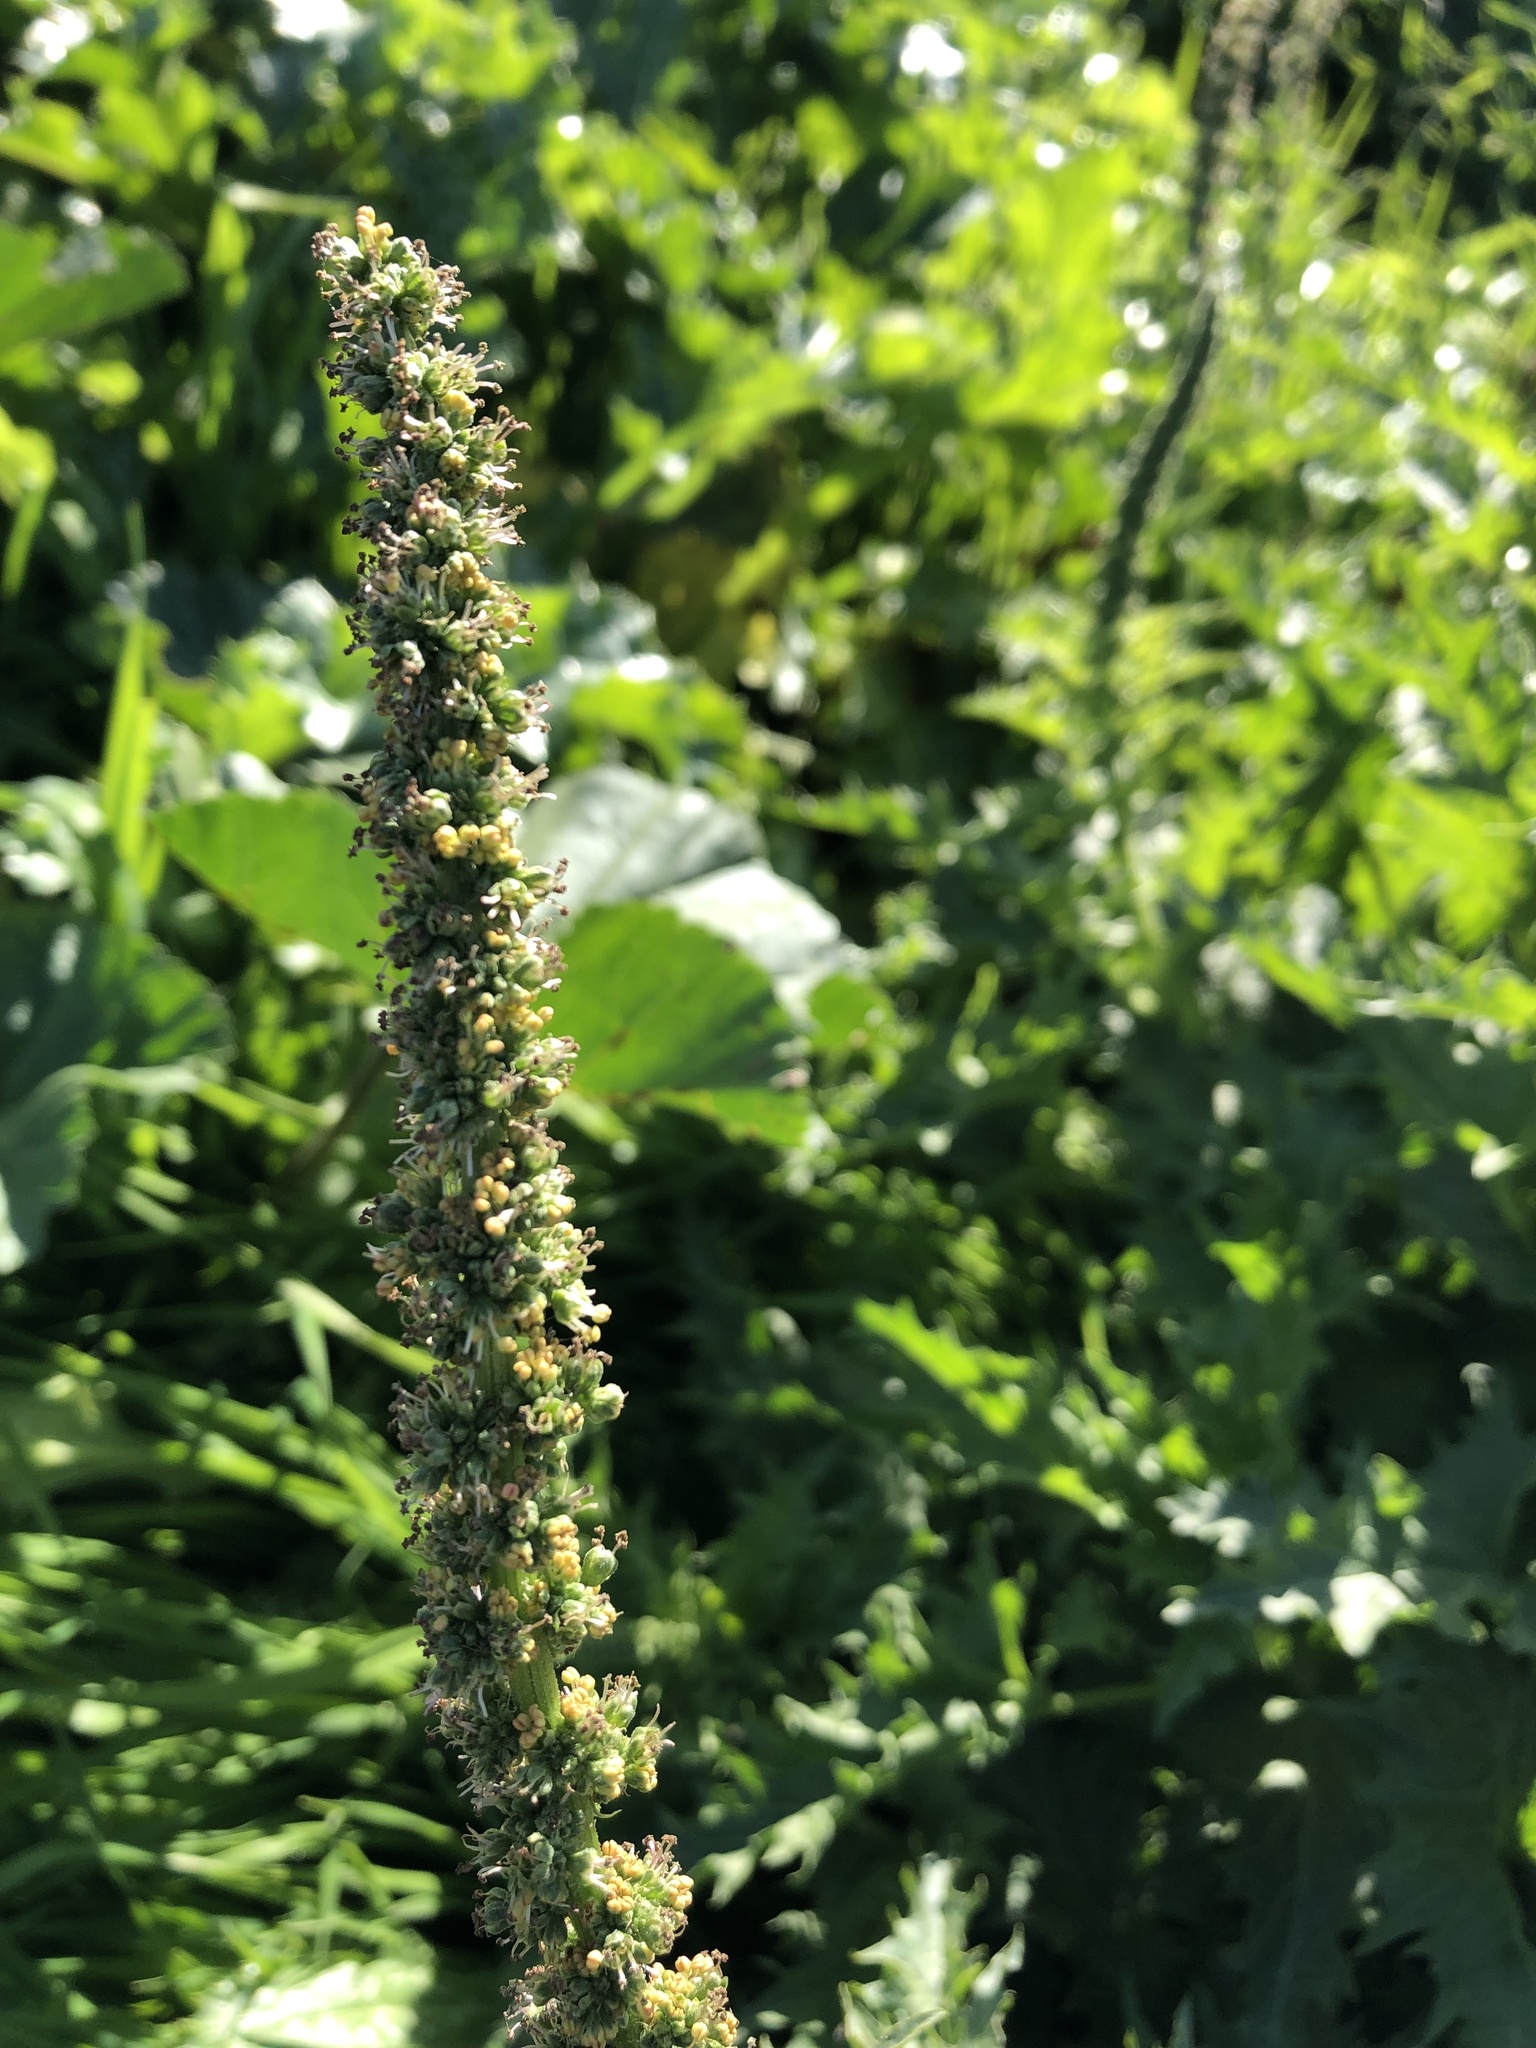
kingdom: Plantae
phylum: Tracheophyta
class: Magnoliopsida
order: Caryophyllales
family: Amaranthaceae
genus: Blitum
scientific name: Blitum californicum
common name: California goosefoot
